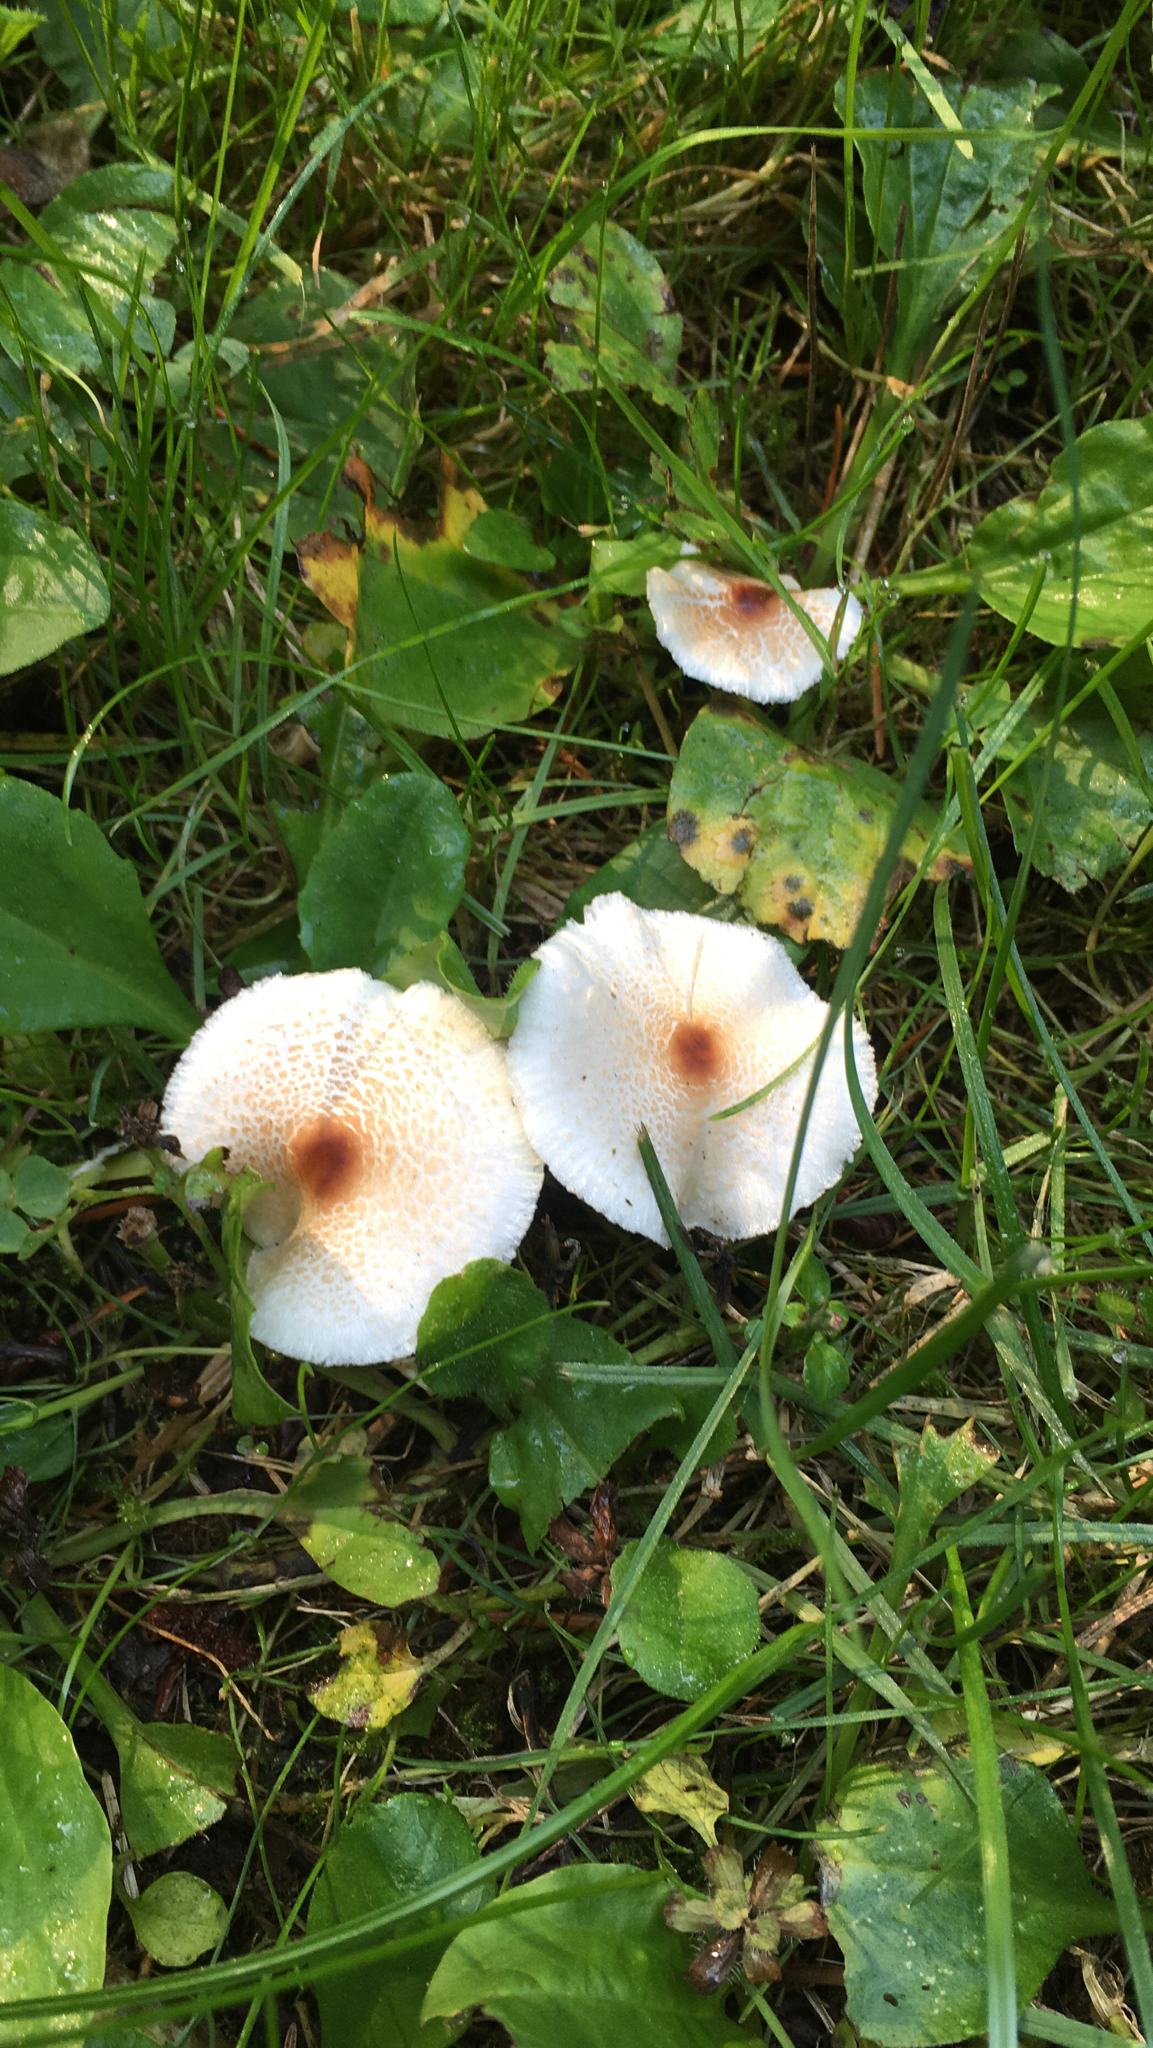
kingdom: Fungi
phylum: Basidiomycota
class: Agaricomycetes
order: Agaricales
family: Agaricaceae
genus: Lepiota
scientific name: Lepiota cristata
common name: Stinking dapperling
